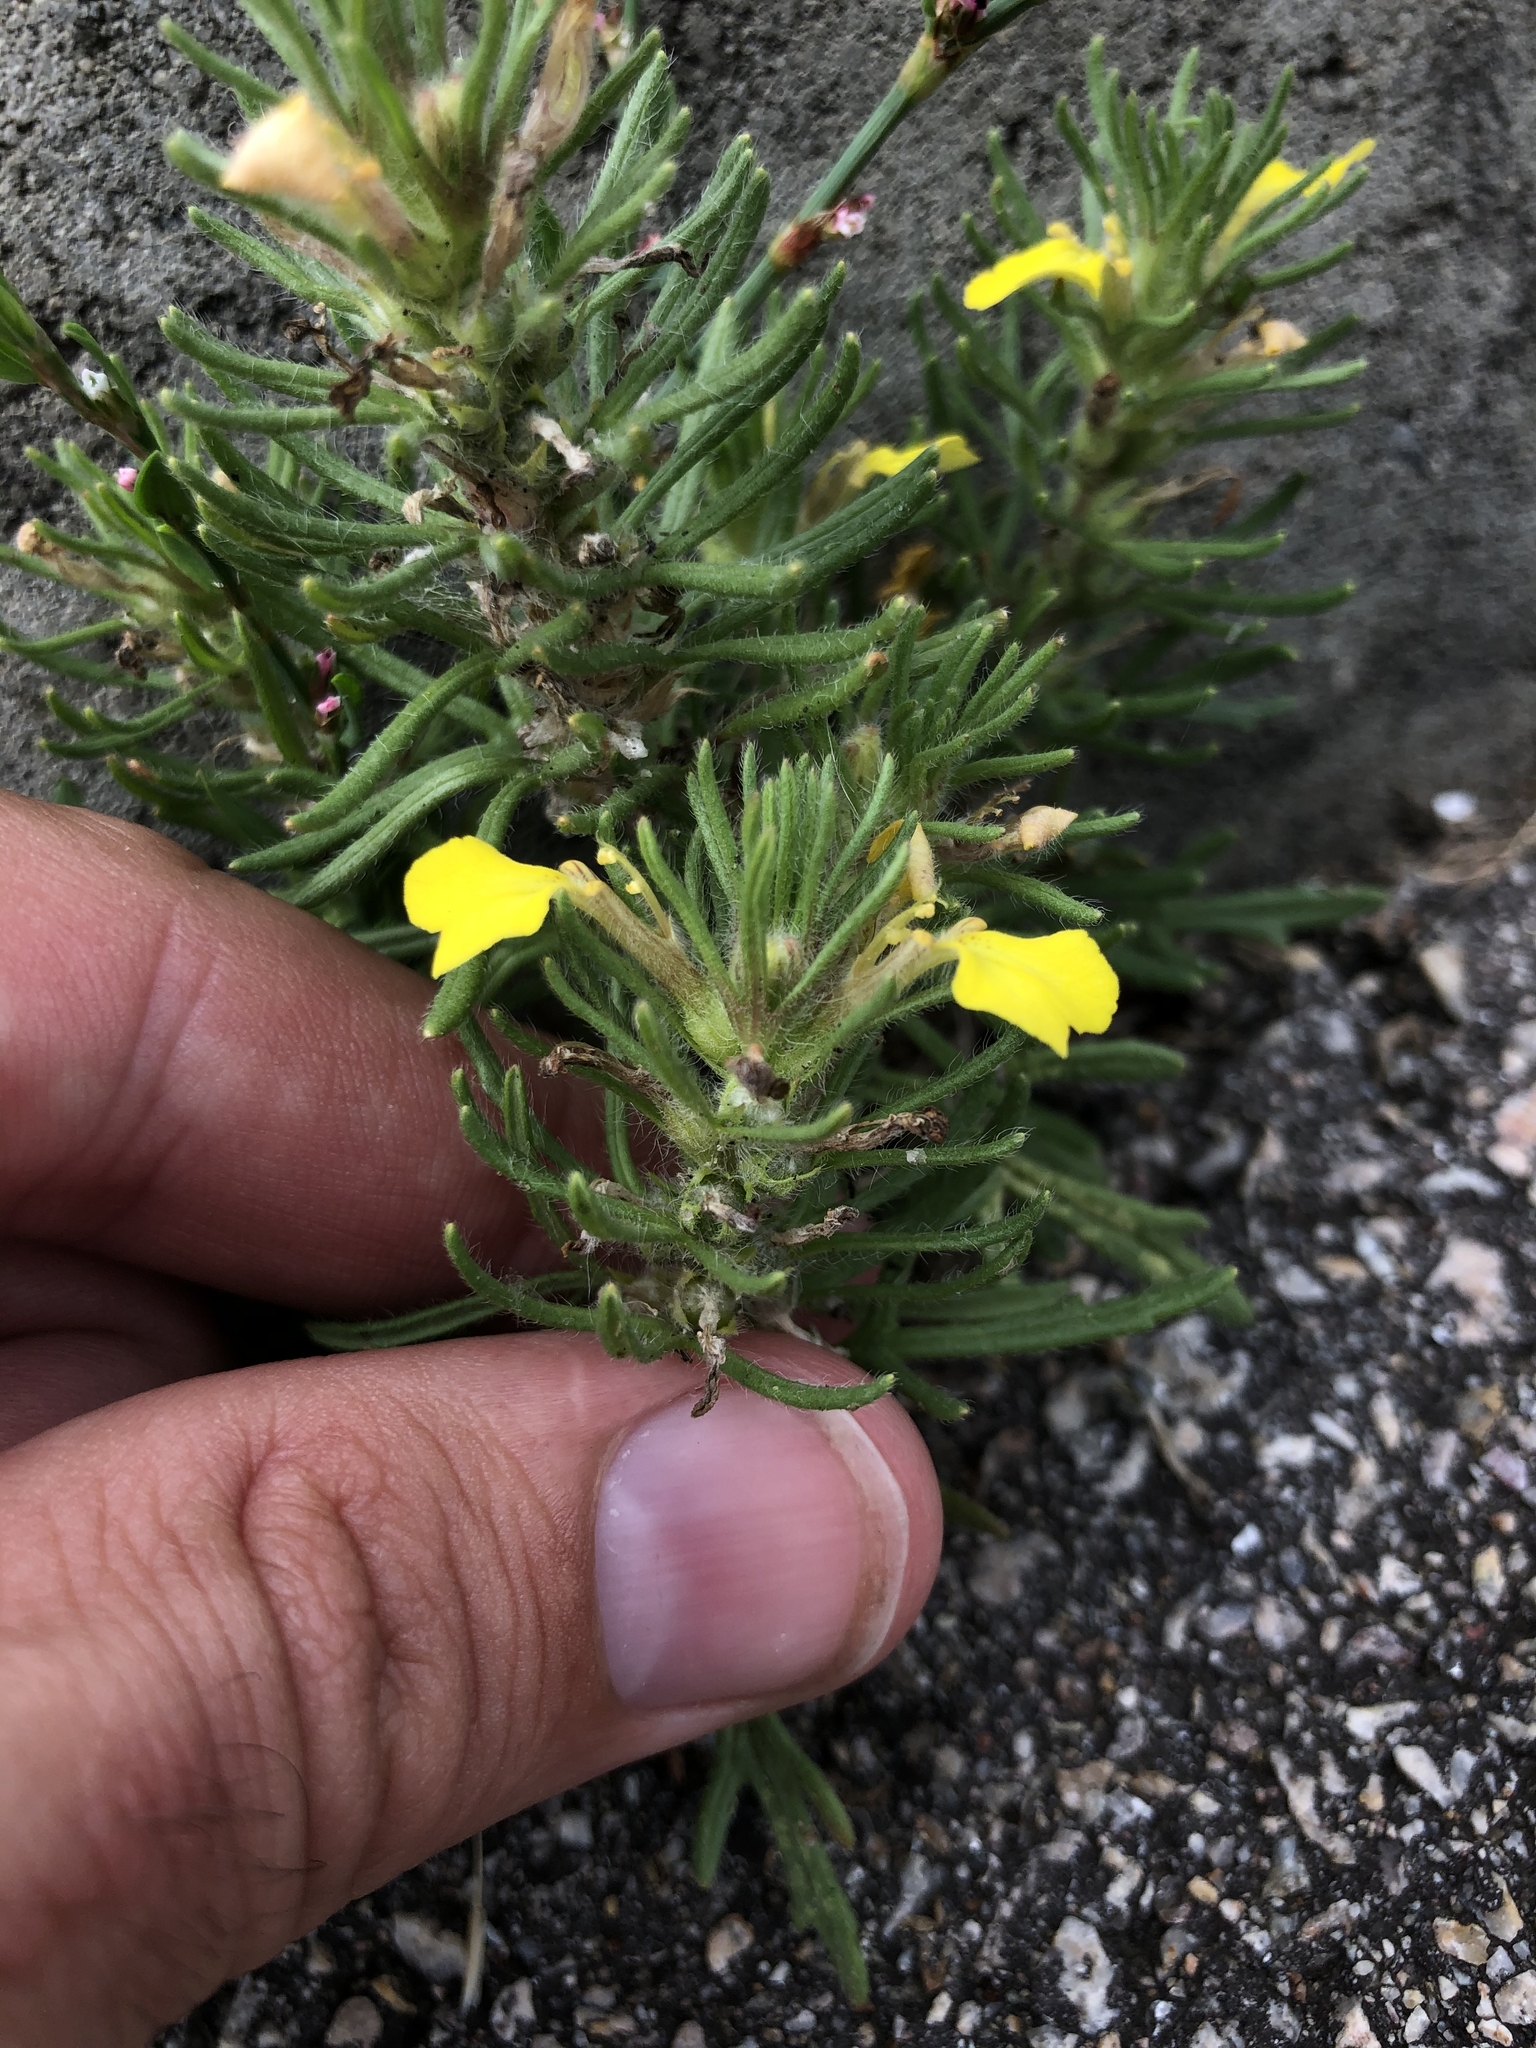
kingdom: Plantae
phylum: Tracheophyta
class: Magnoliopsida
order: Lamiales
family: Lamiaceae
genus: Ajuga
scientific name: Ajuga chamaepitys
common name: Ground-pine
